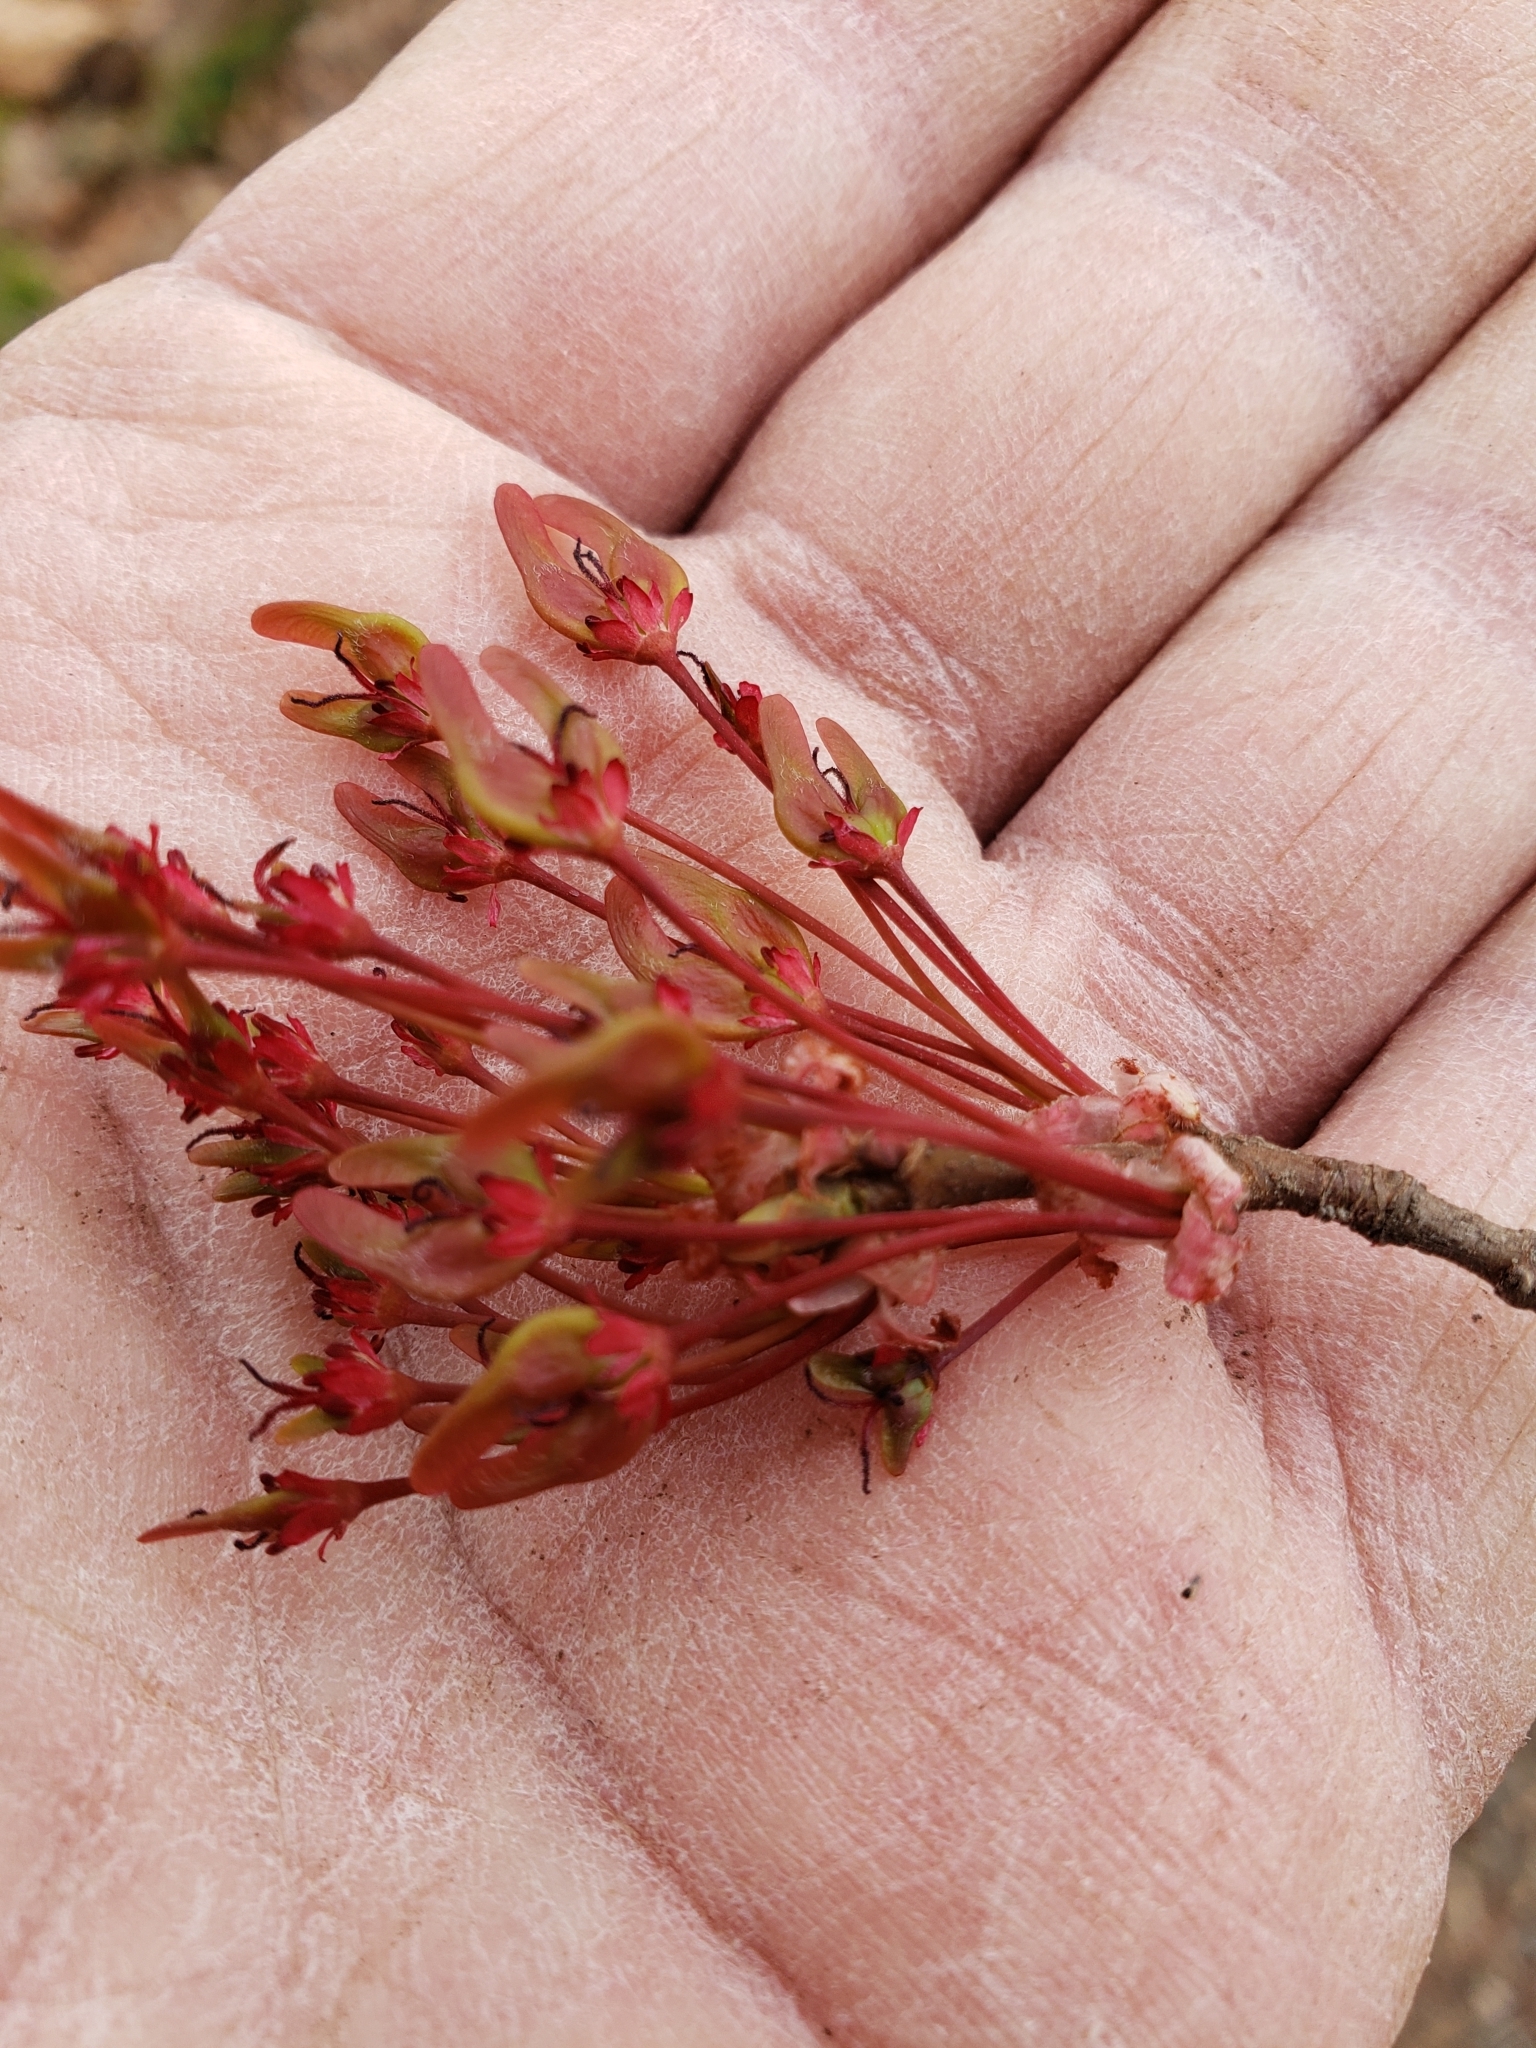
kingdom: Plantae
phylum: Tracheophyta
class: Magnoliopsida
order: Sapindales
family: Sapindaceae
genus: Acer
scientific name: Acer rubrum
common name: Red maple
